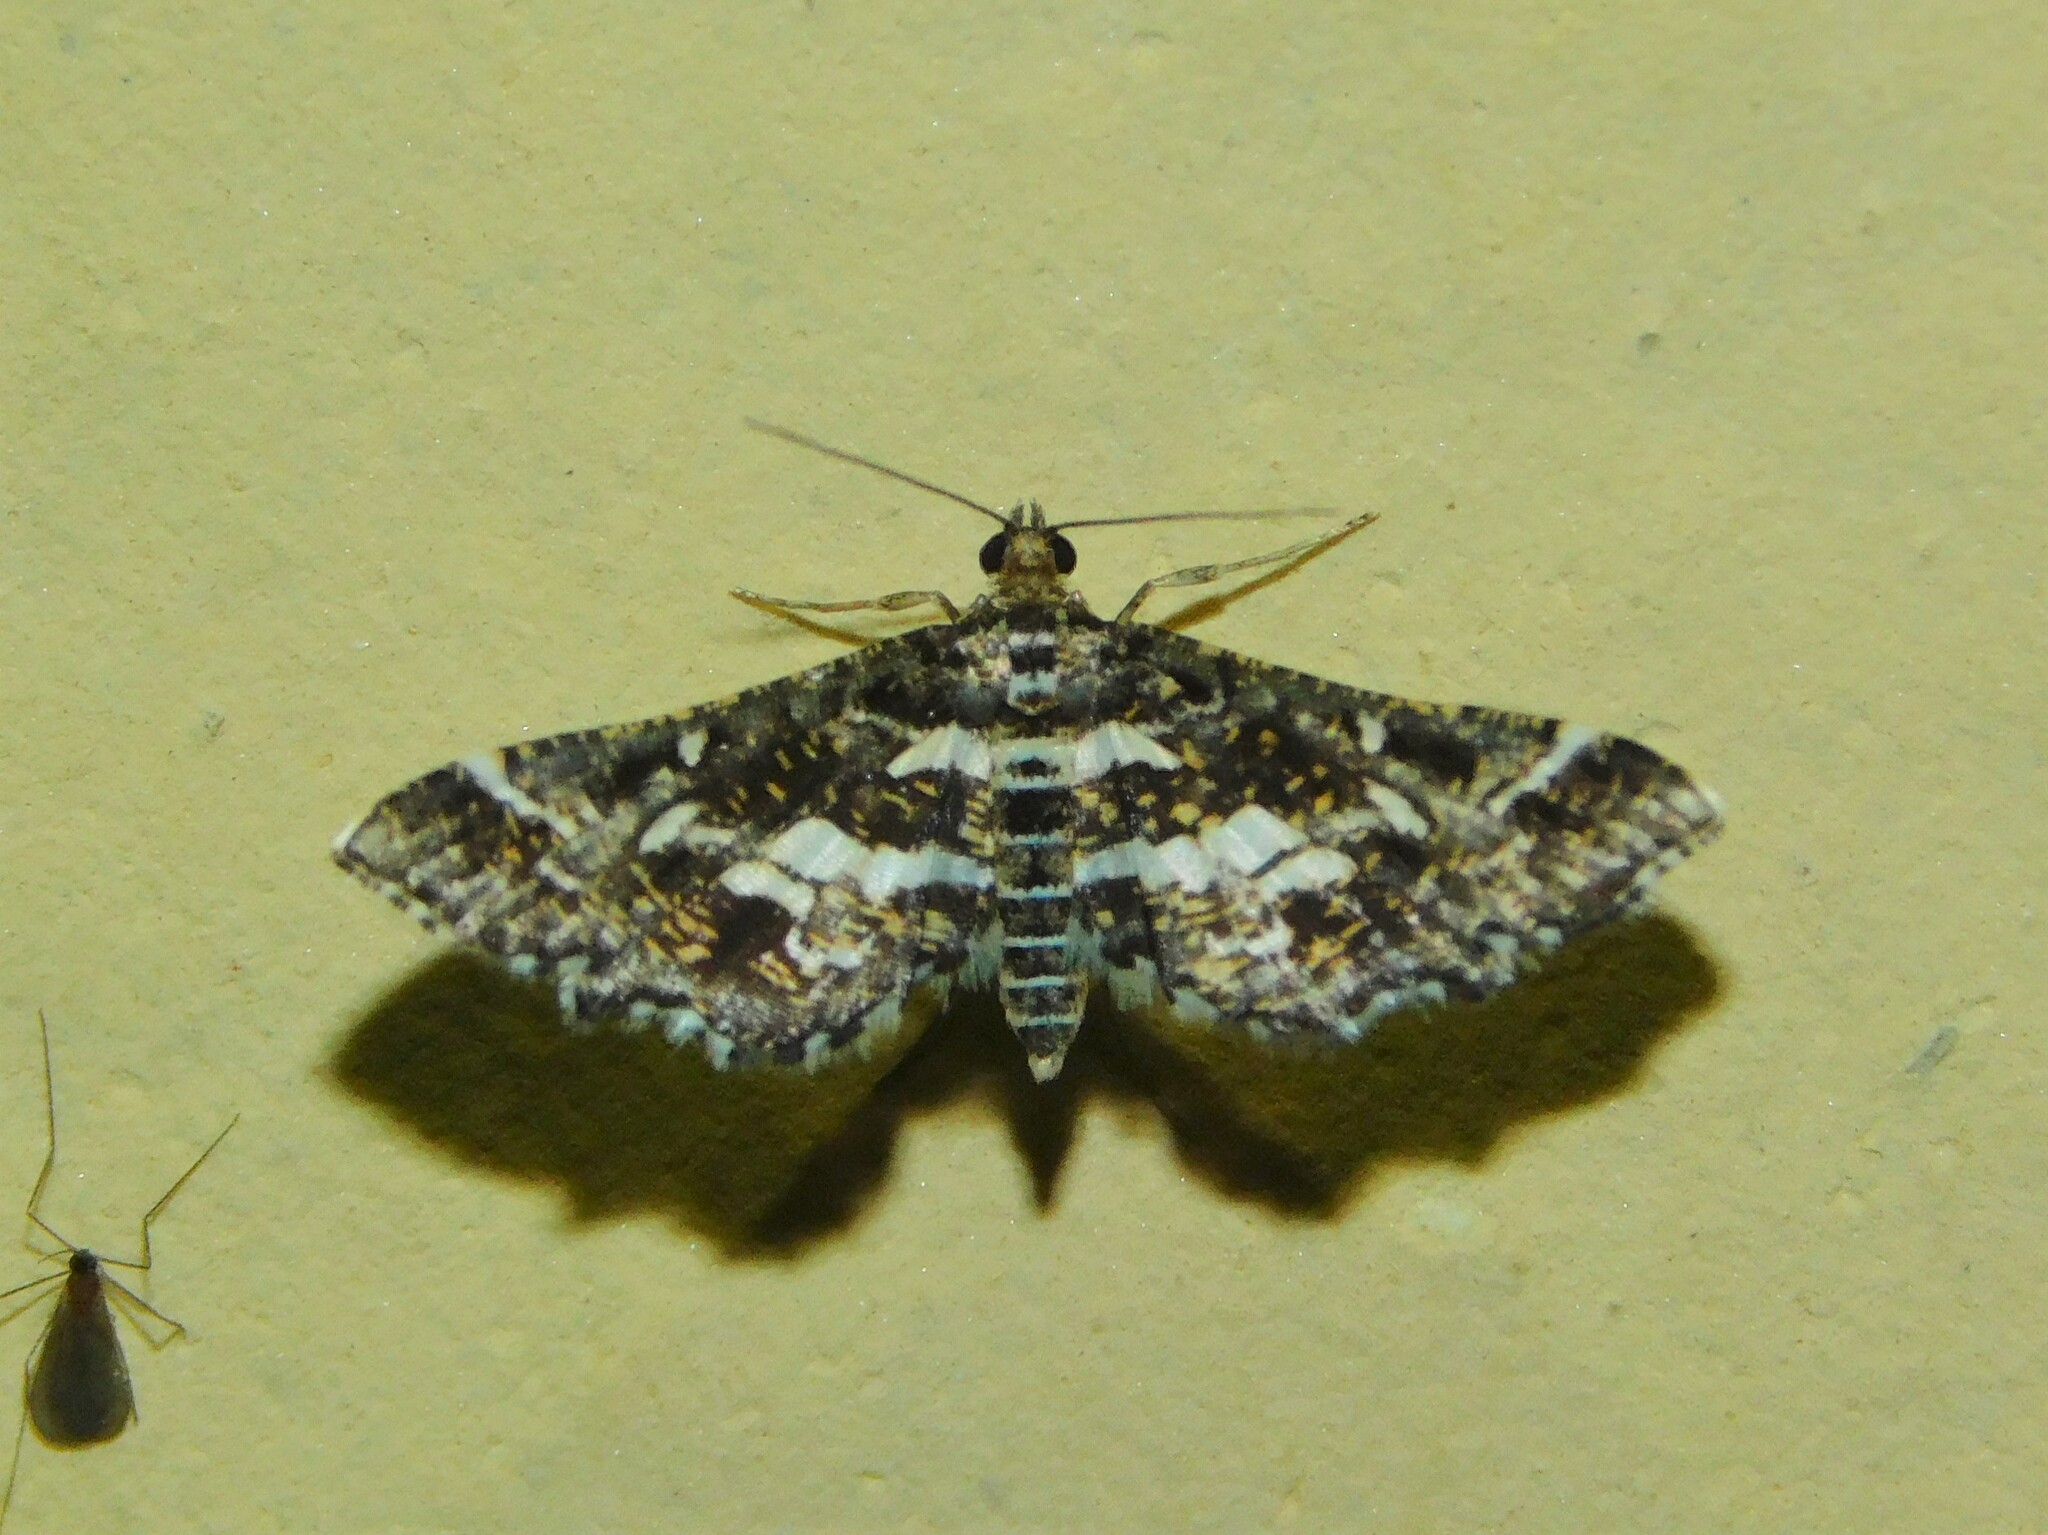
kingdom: Animalia
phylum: Arthropoda
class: Insecta
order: Lepidoptera
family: Crambidae
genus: Diasemiopsis
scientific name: Diasemiopsis ramburialis
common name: Vagrant china-mark
